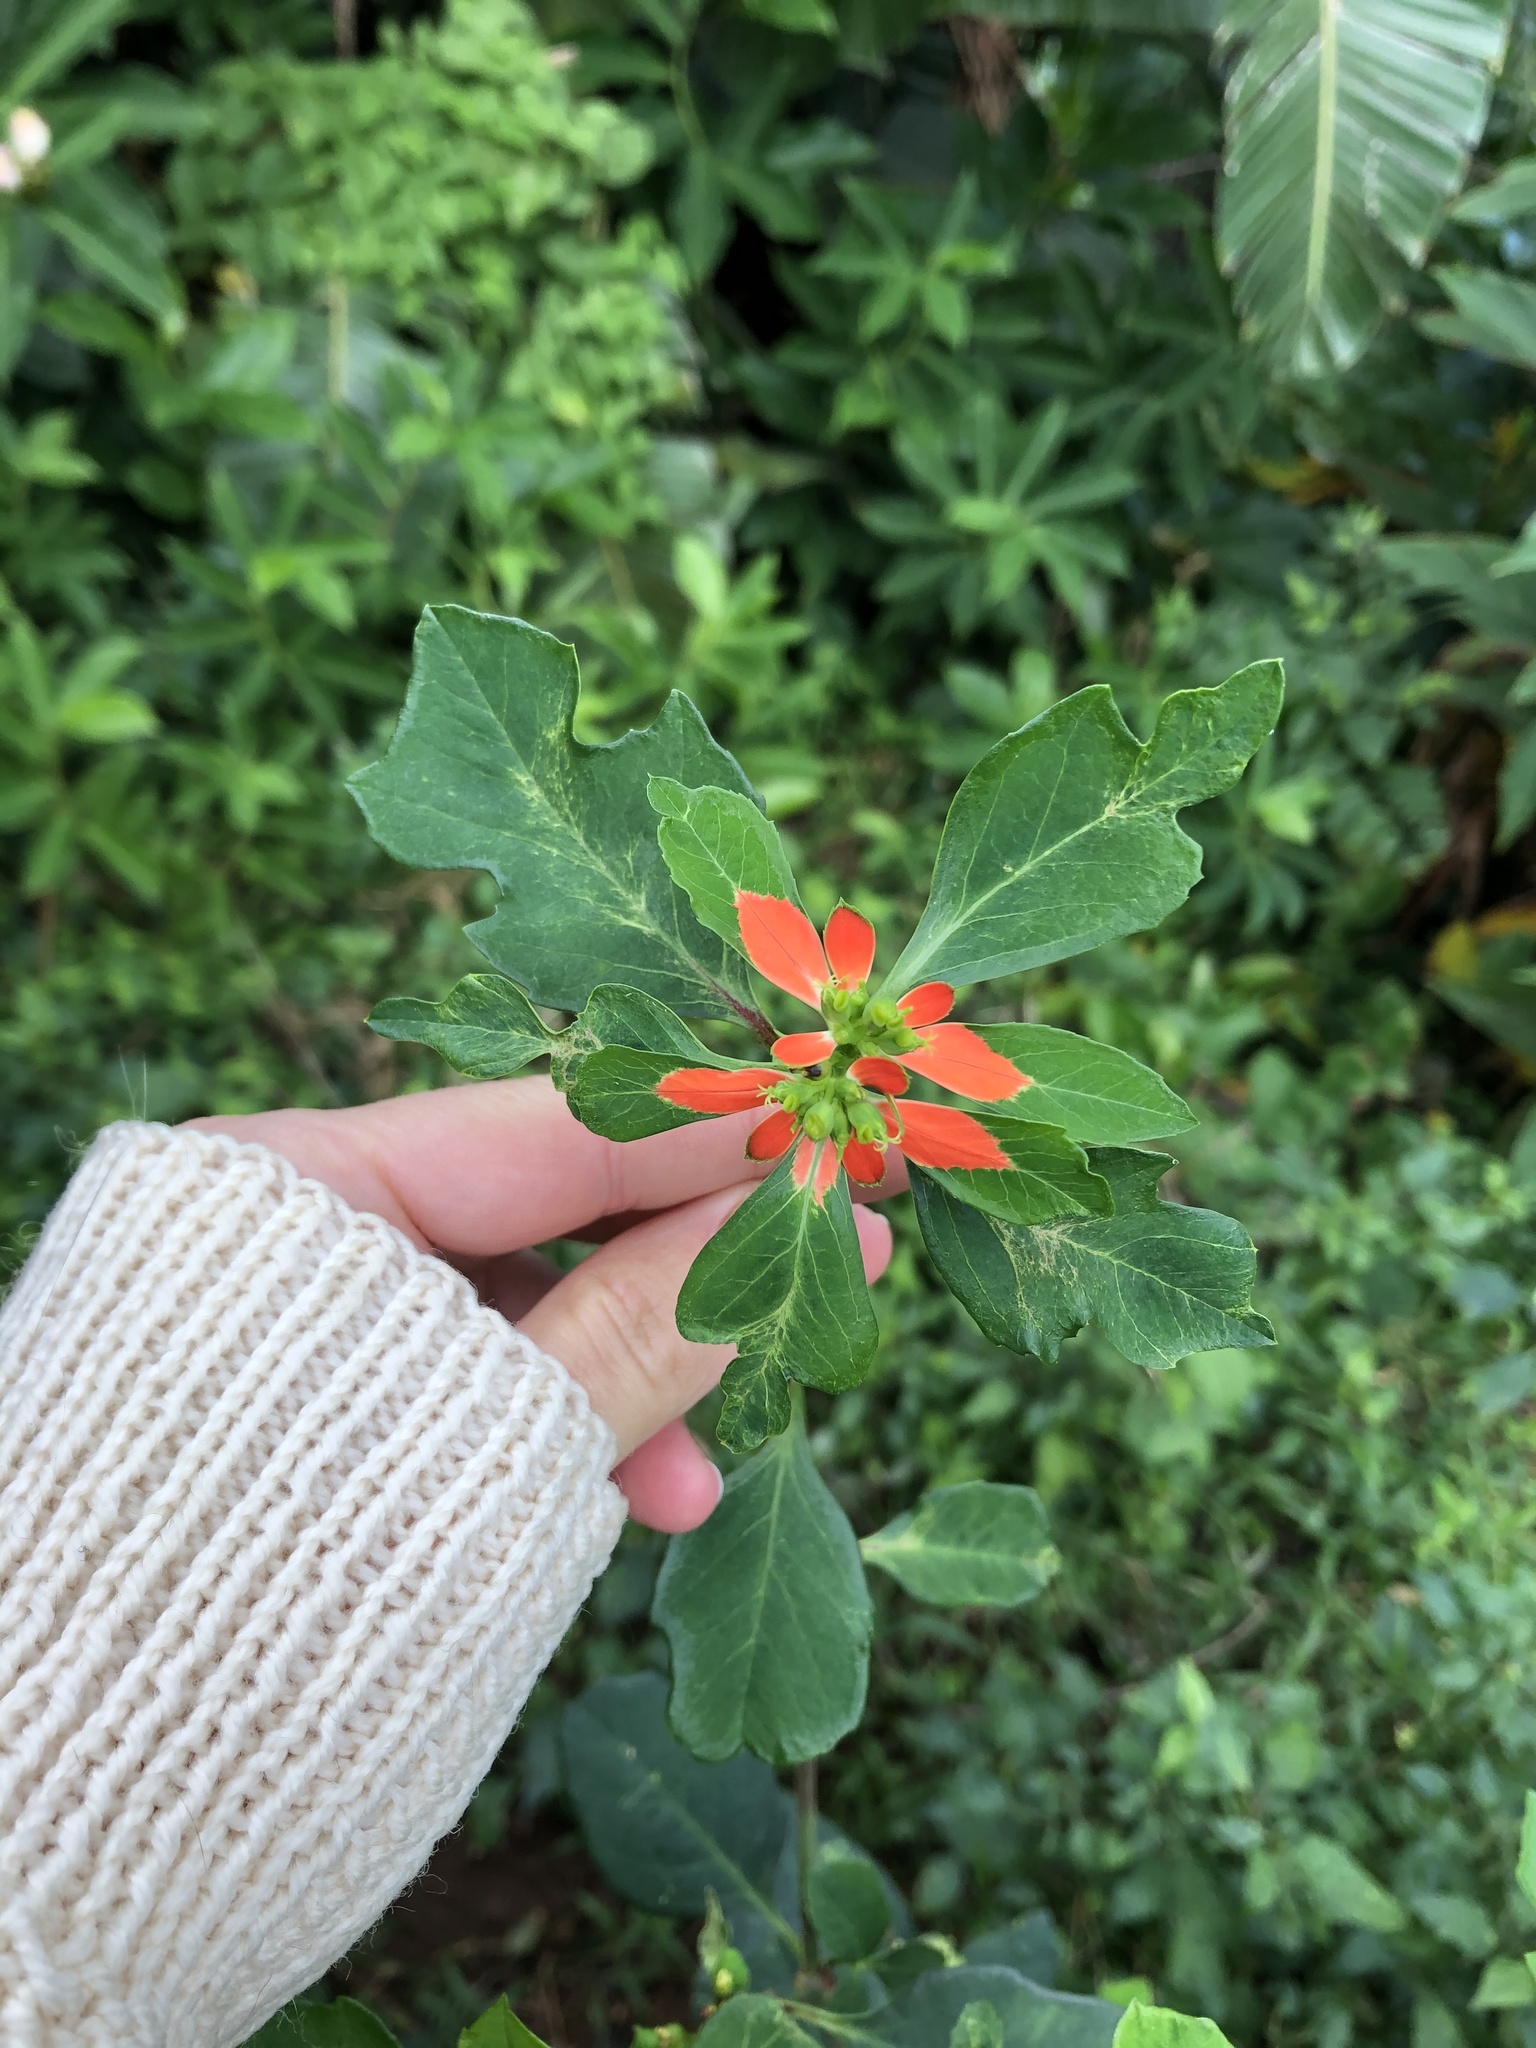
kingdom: Plantae
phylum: Tracheophyta
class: Magnoliopsida
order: Malpighiales
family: Euphorbiaceae
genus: Euphorbia
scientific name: Euphorbia heterophylla
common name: Mexican fireplant
